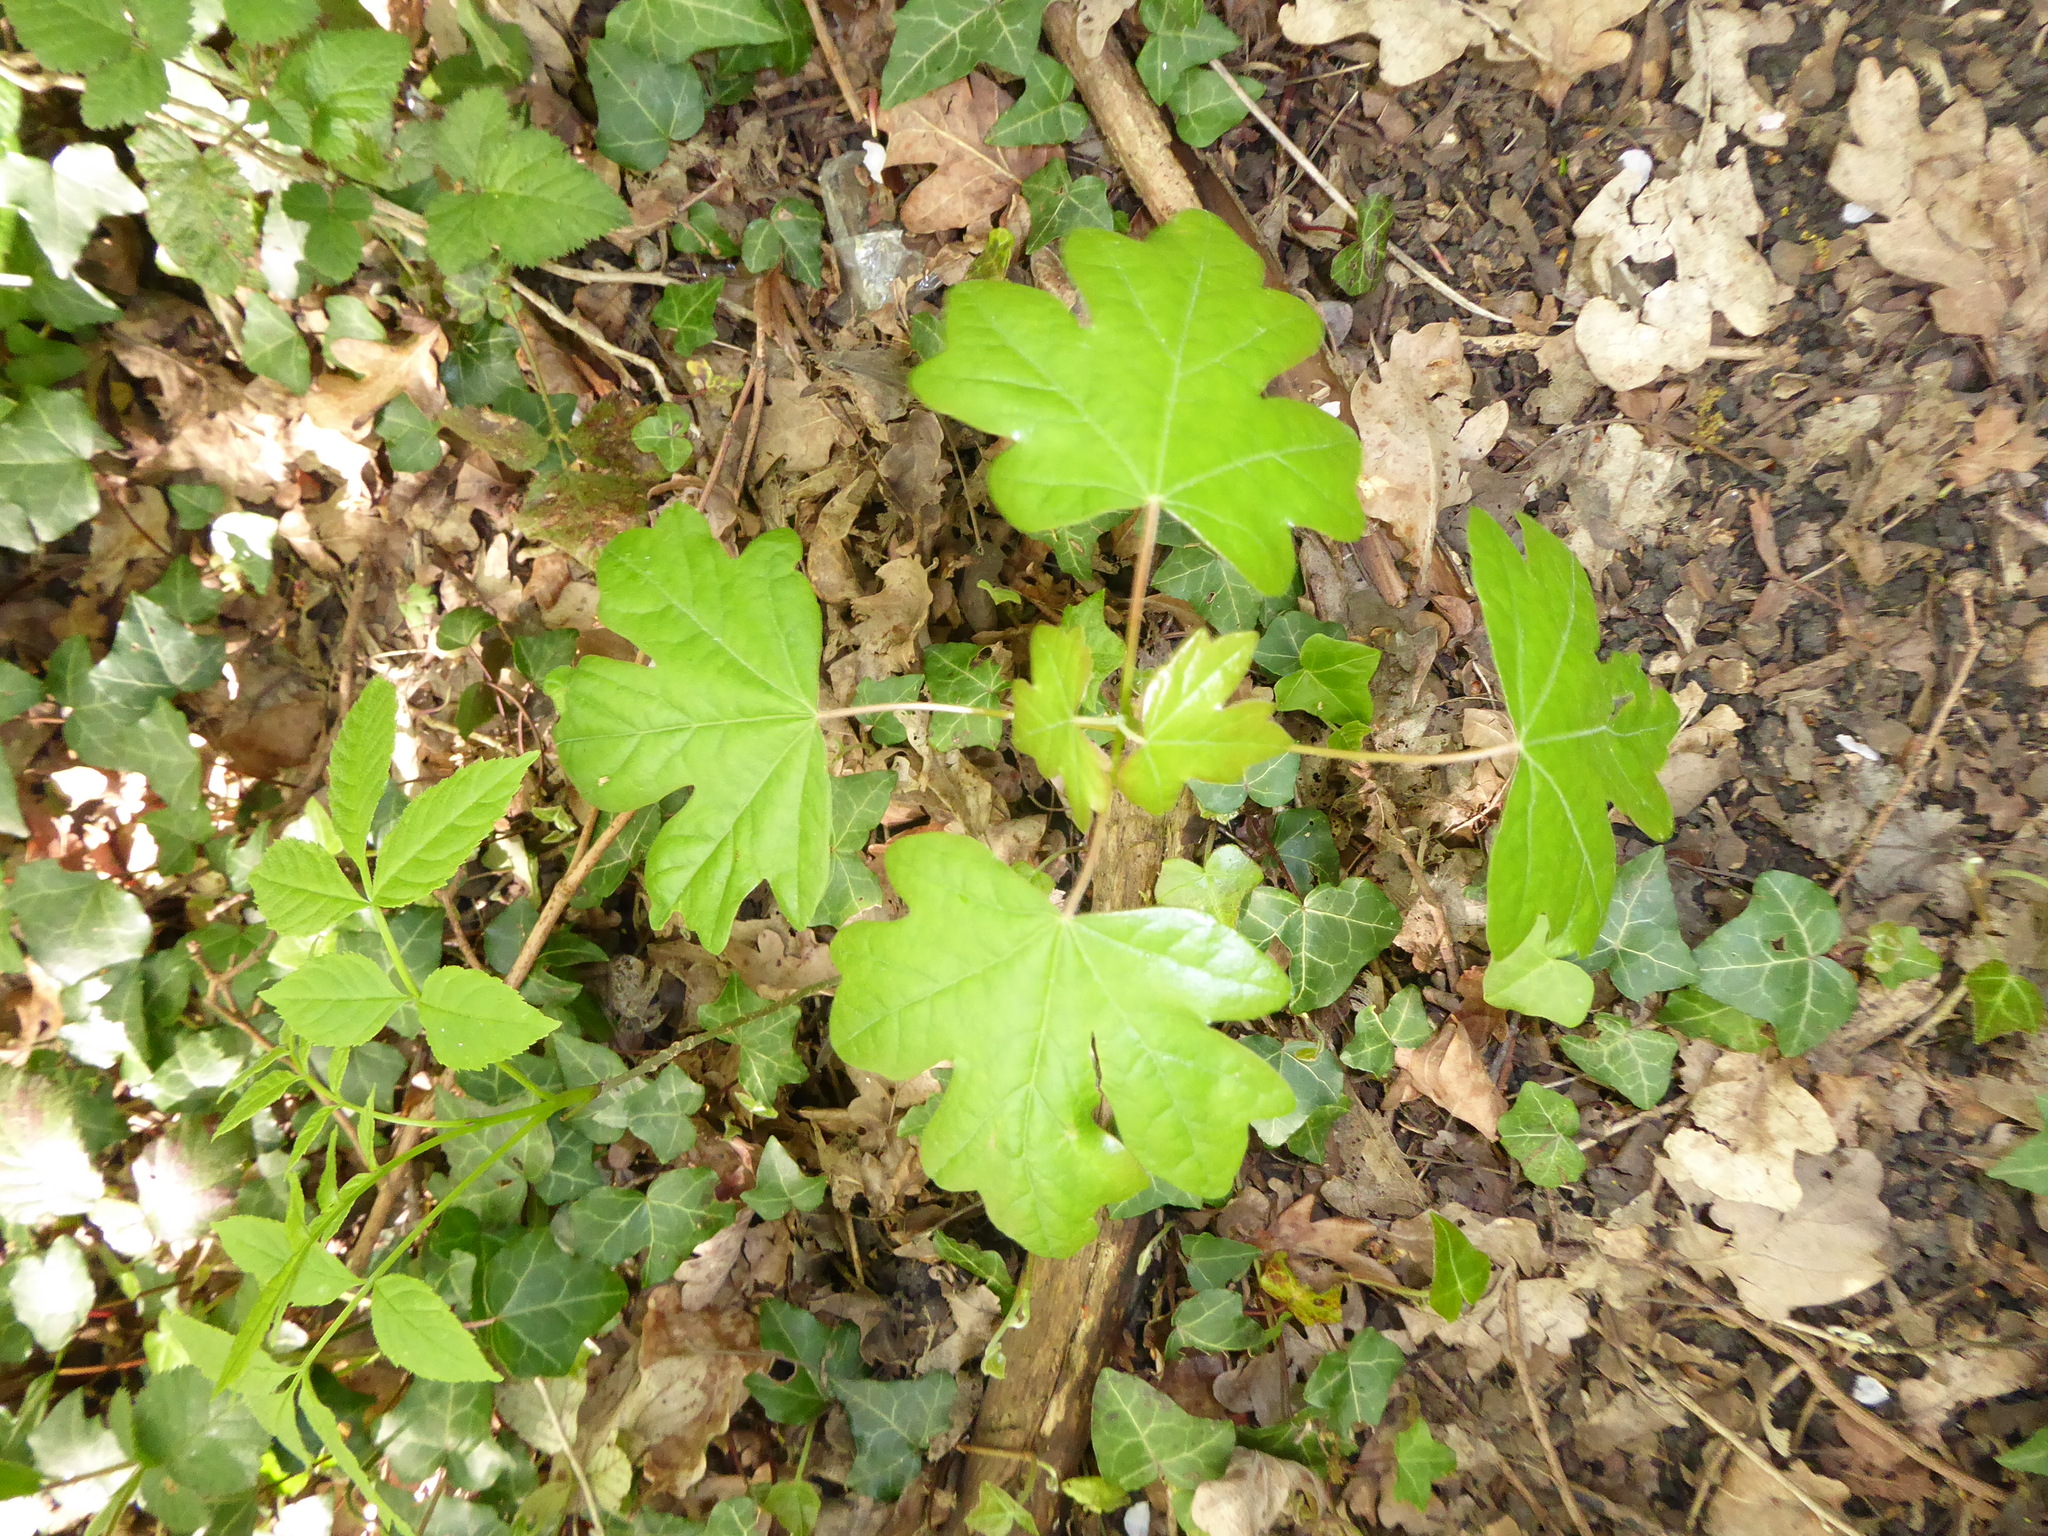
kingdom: Plantae
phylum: Tracheophyta
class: Magnoliopsida
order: Sapindales
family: Sapindaceae
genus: Acer
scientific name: Acer campestre
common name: Field maple
